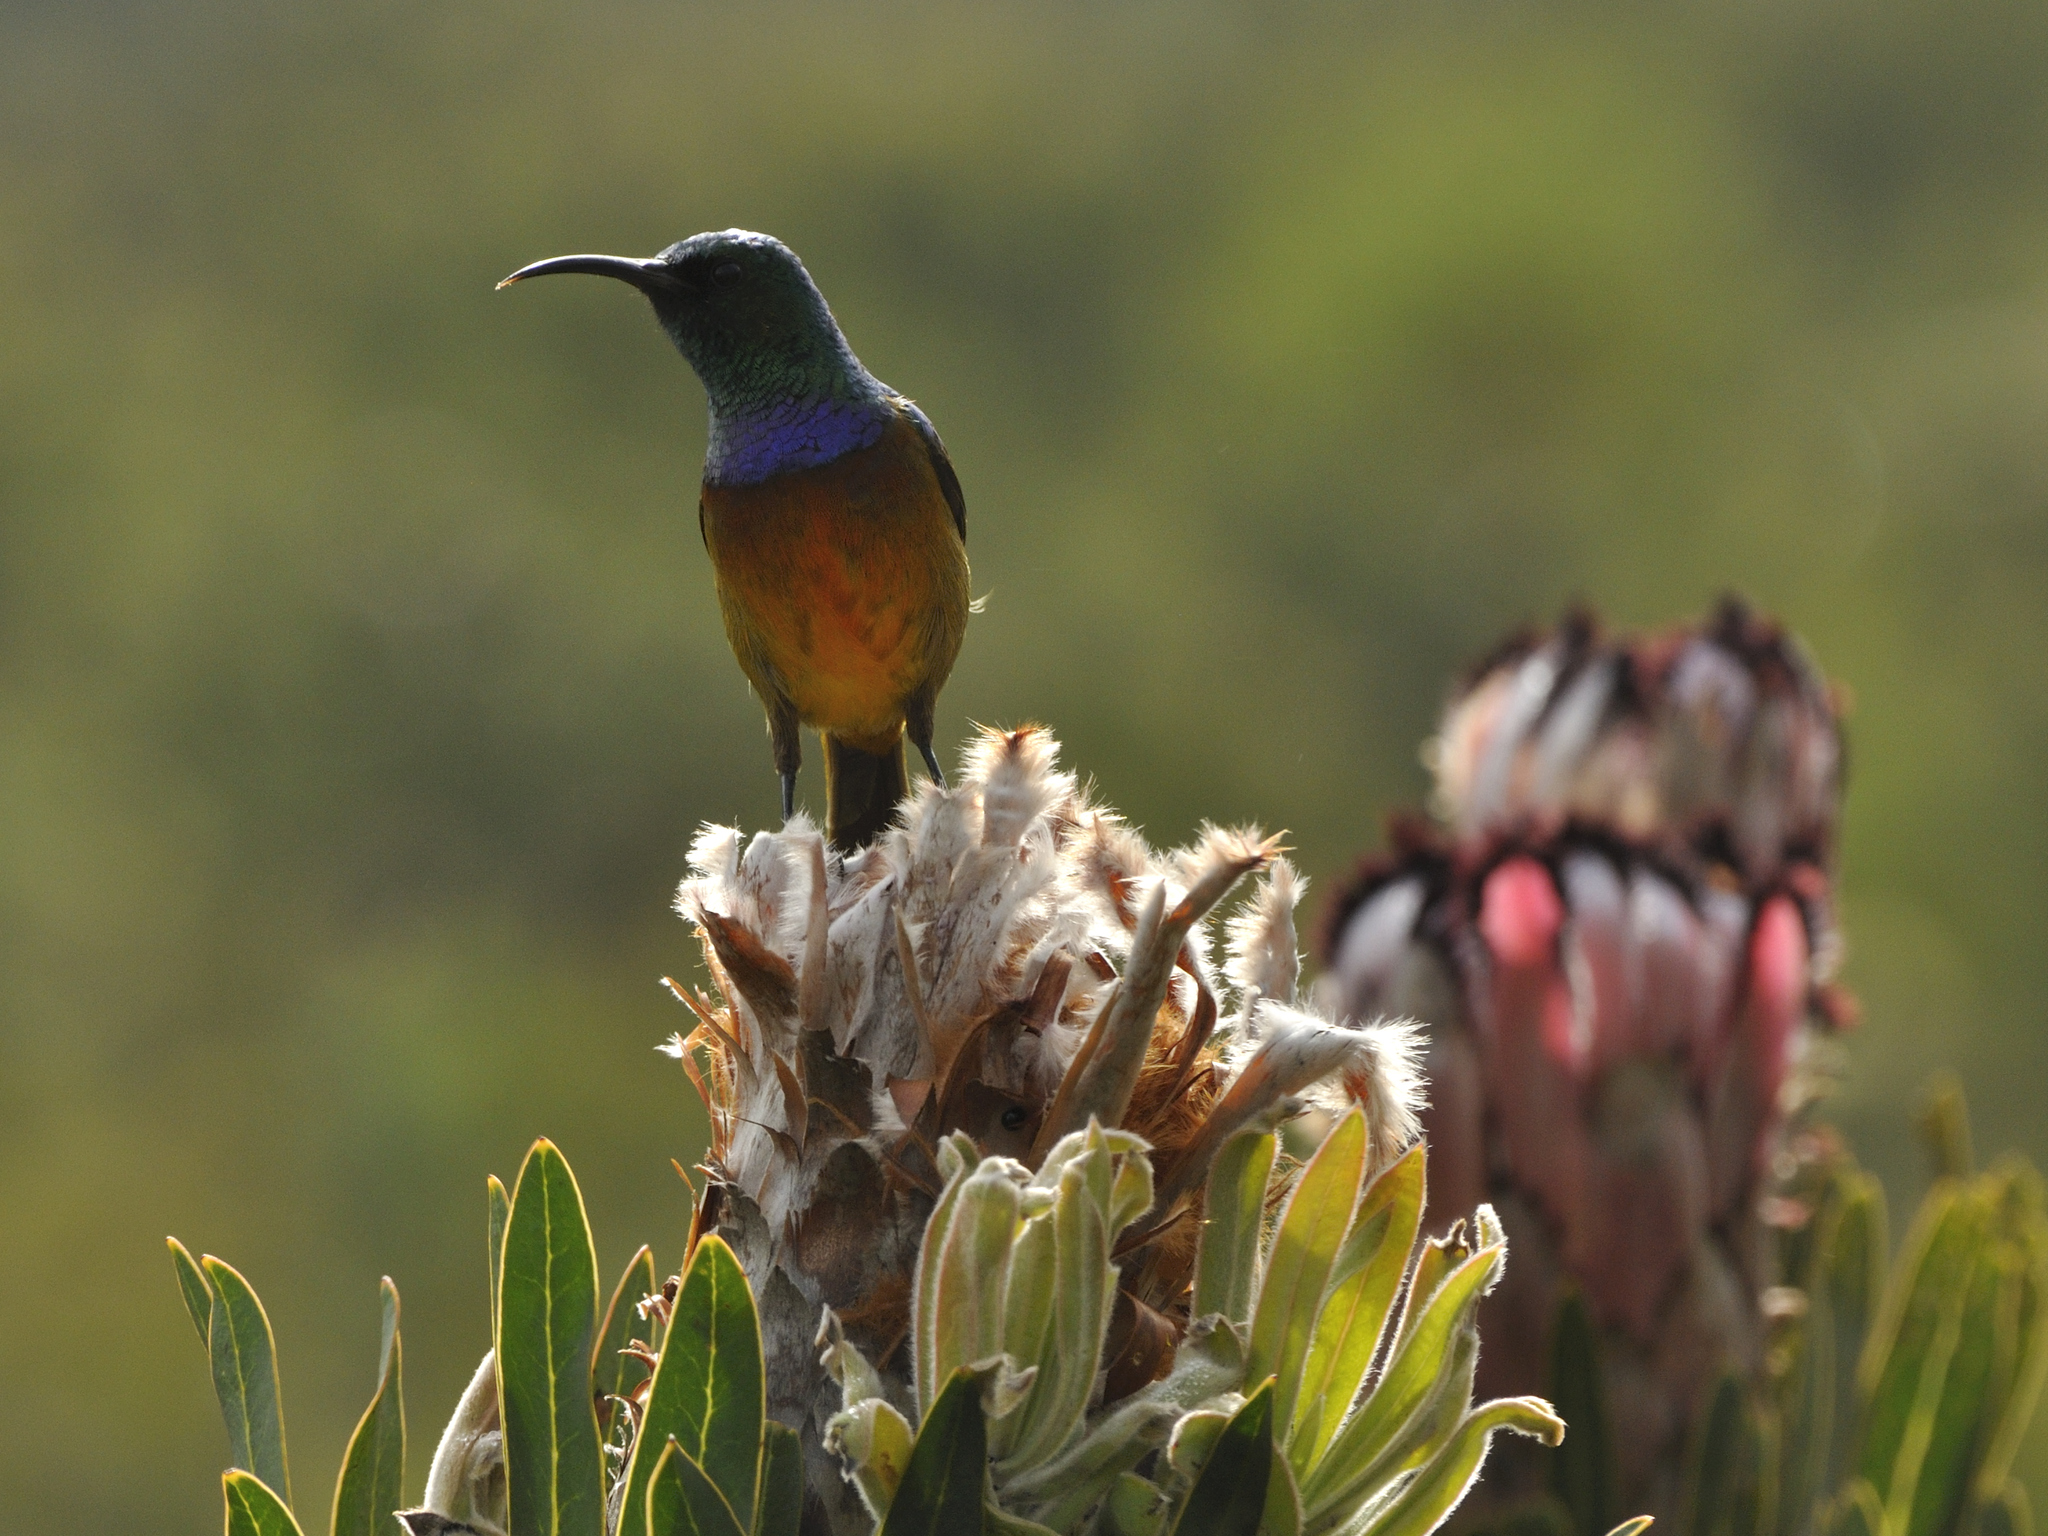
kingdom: Animalia
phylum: Chordata
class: Aves
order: Passeriformes
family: Nectariniidae
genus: Anthobaphes
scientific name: Anthobaphes violacea
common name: Orange-breasted sunbird
